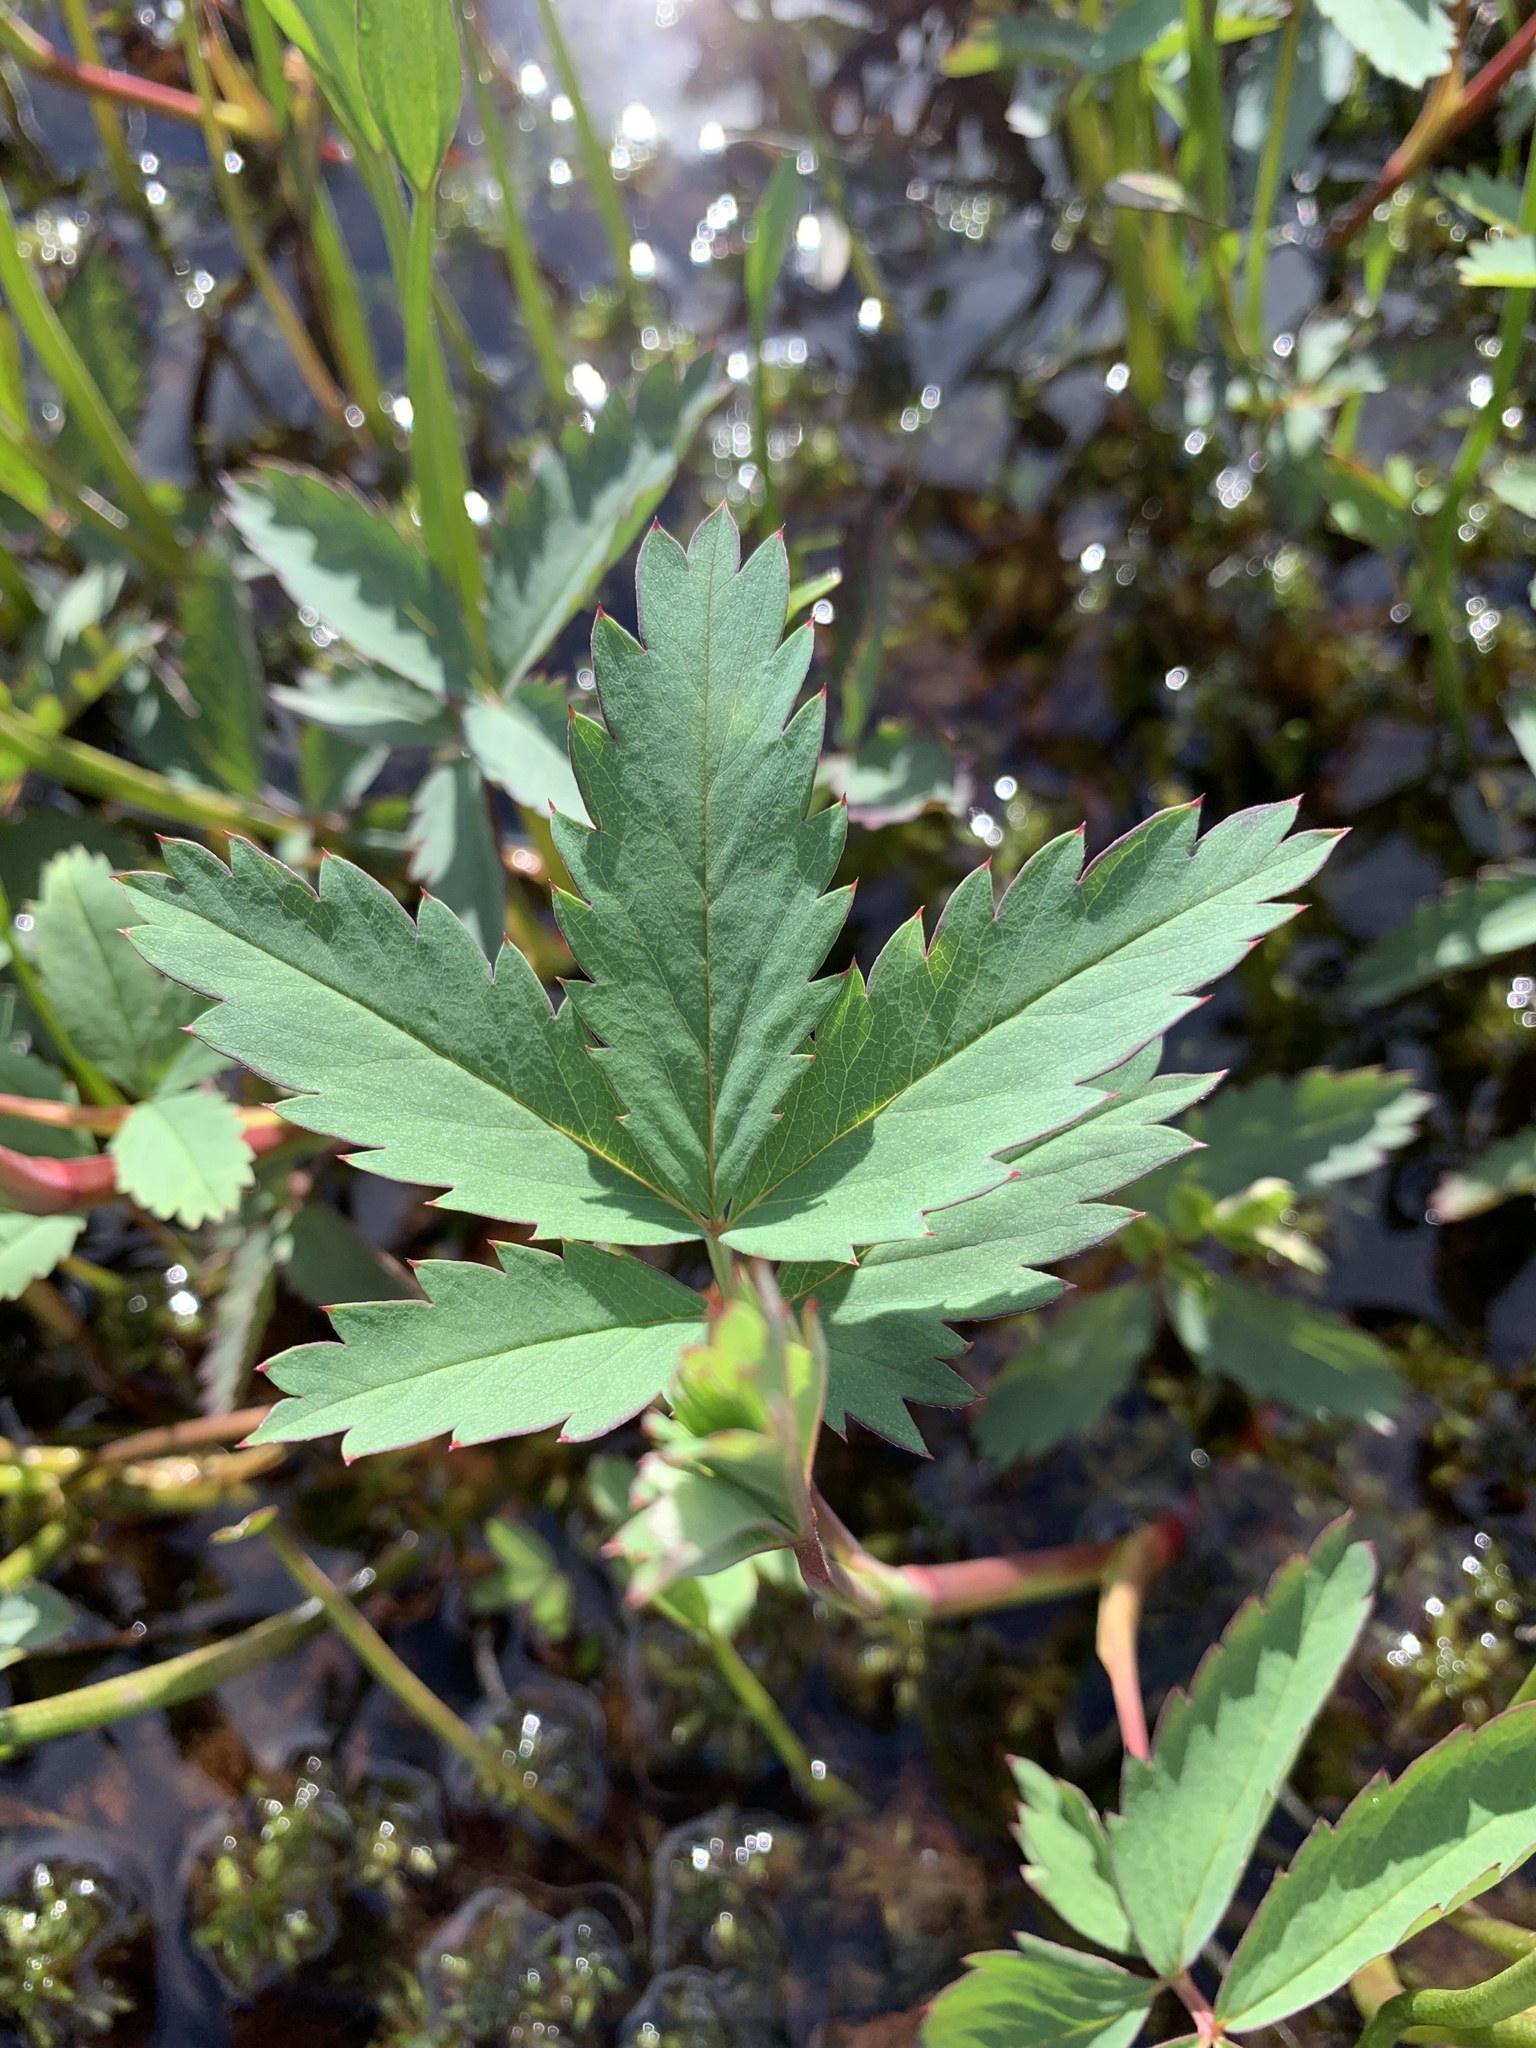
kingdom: Plantae
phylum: Tracheophyta
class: Magnoliopsida
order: Rosales
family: Rosaceae
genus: Comarum
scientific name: Comarum palustre
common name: Marsh cinquefoil
